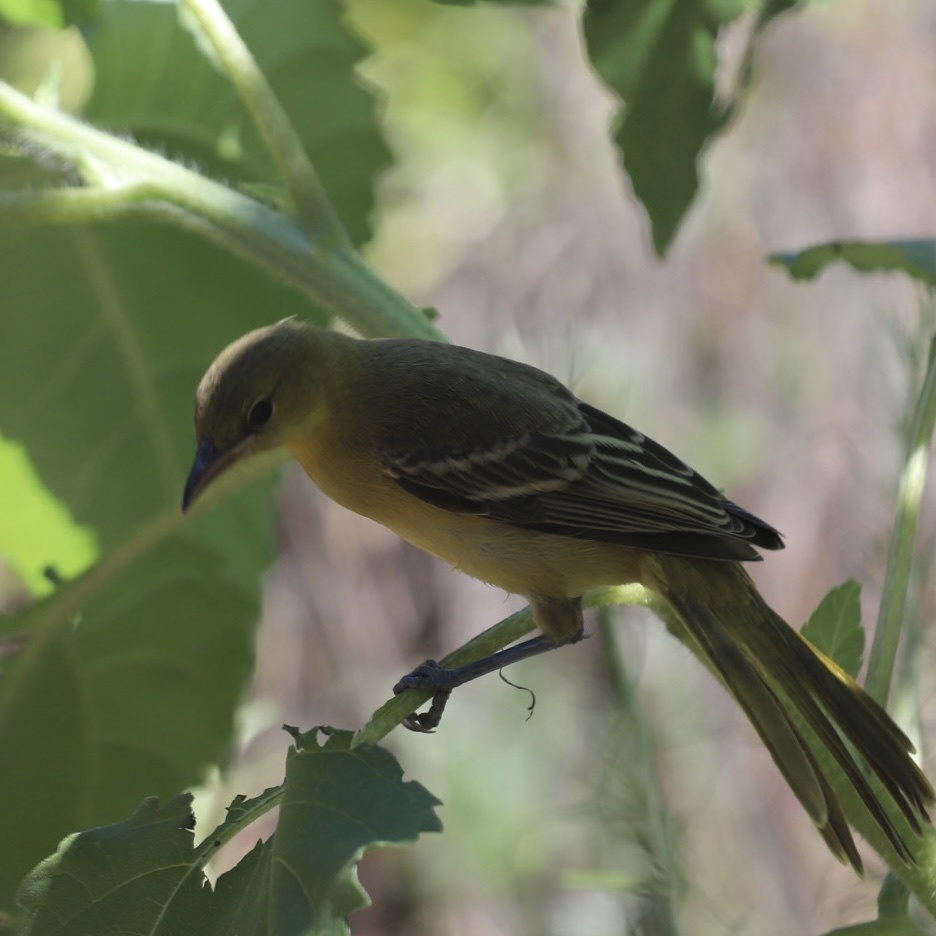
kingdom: Animalia
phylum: Chordata
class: Aves
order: Passeriformes
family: Icteridae
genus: Icterus
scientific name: Icterus cucullatus
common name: Hooded oriole
